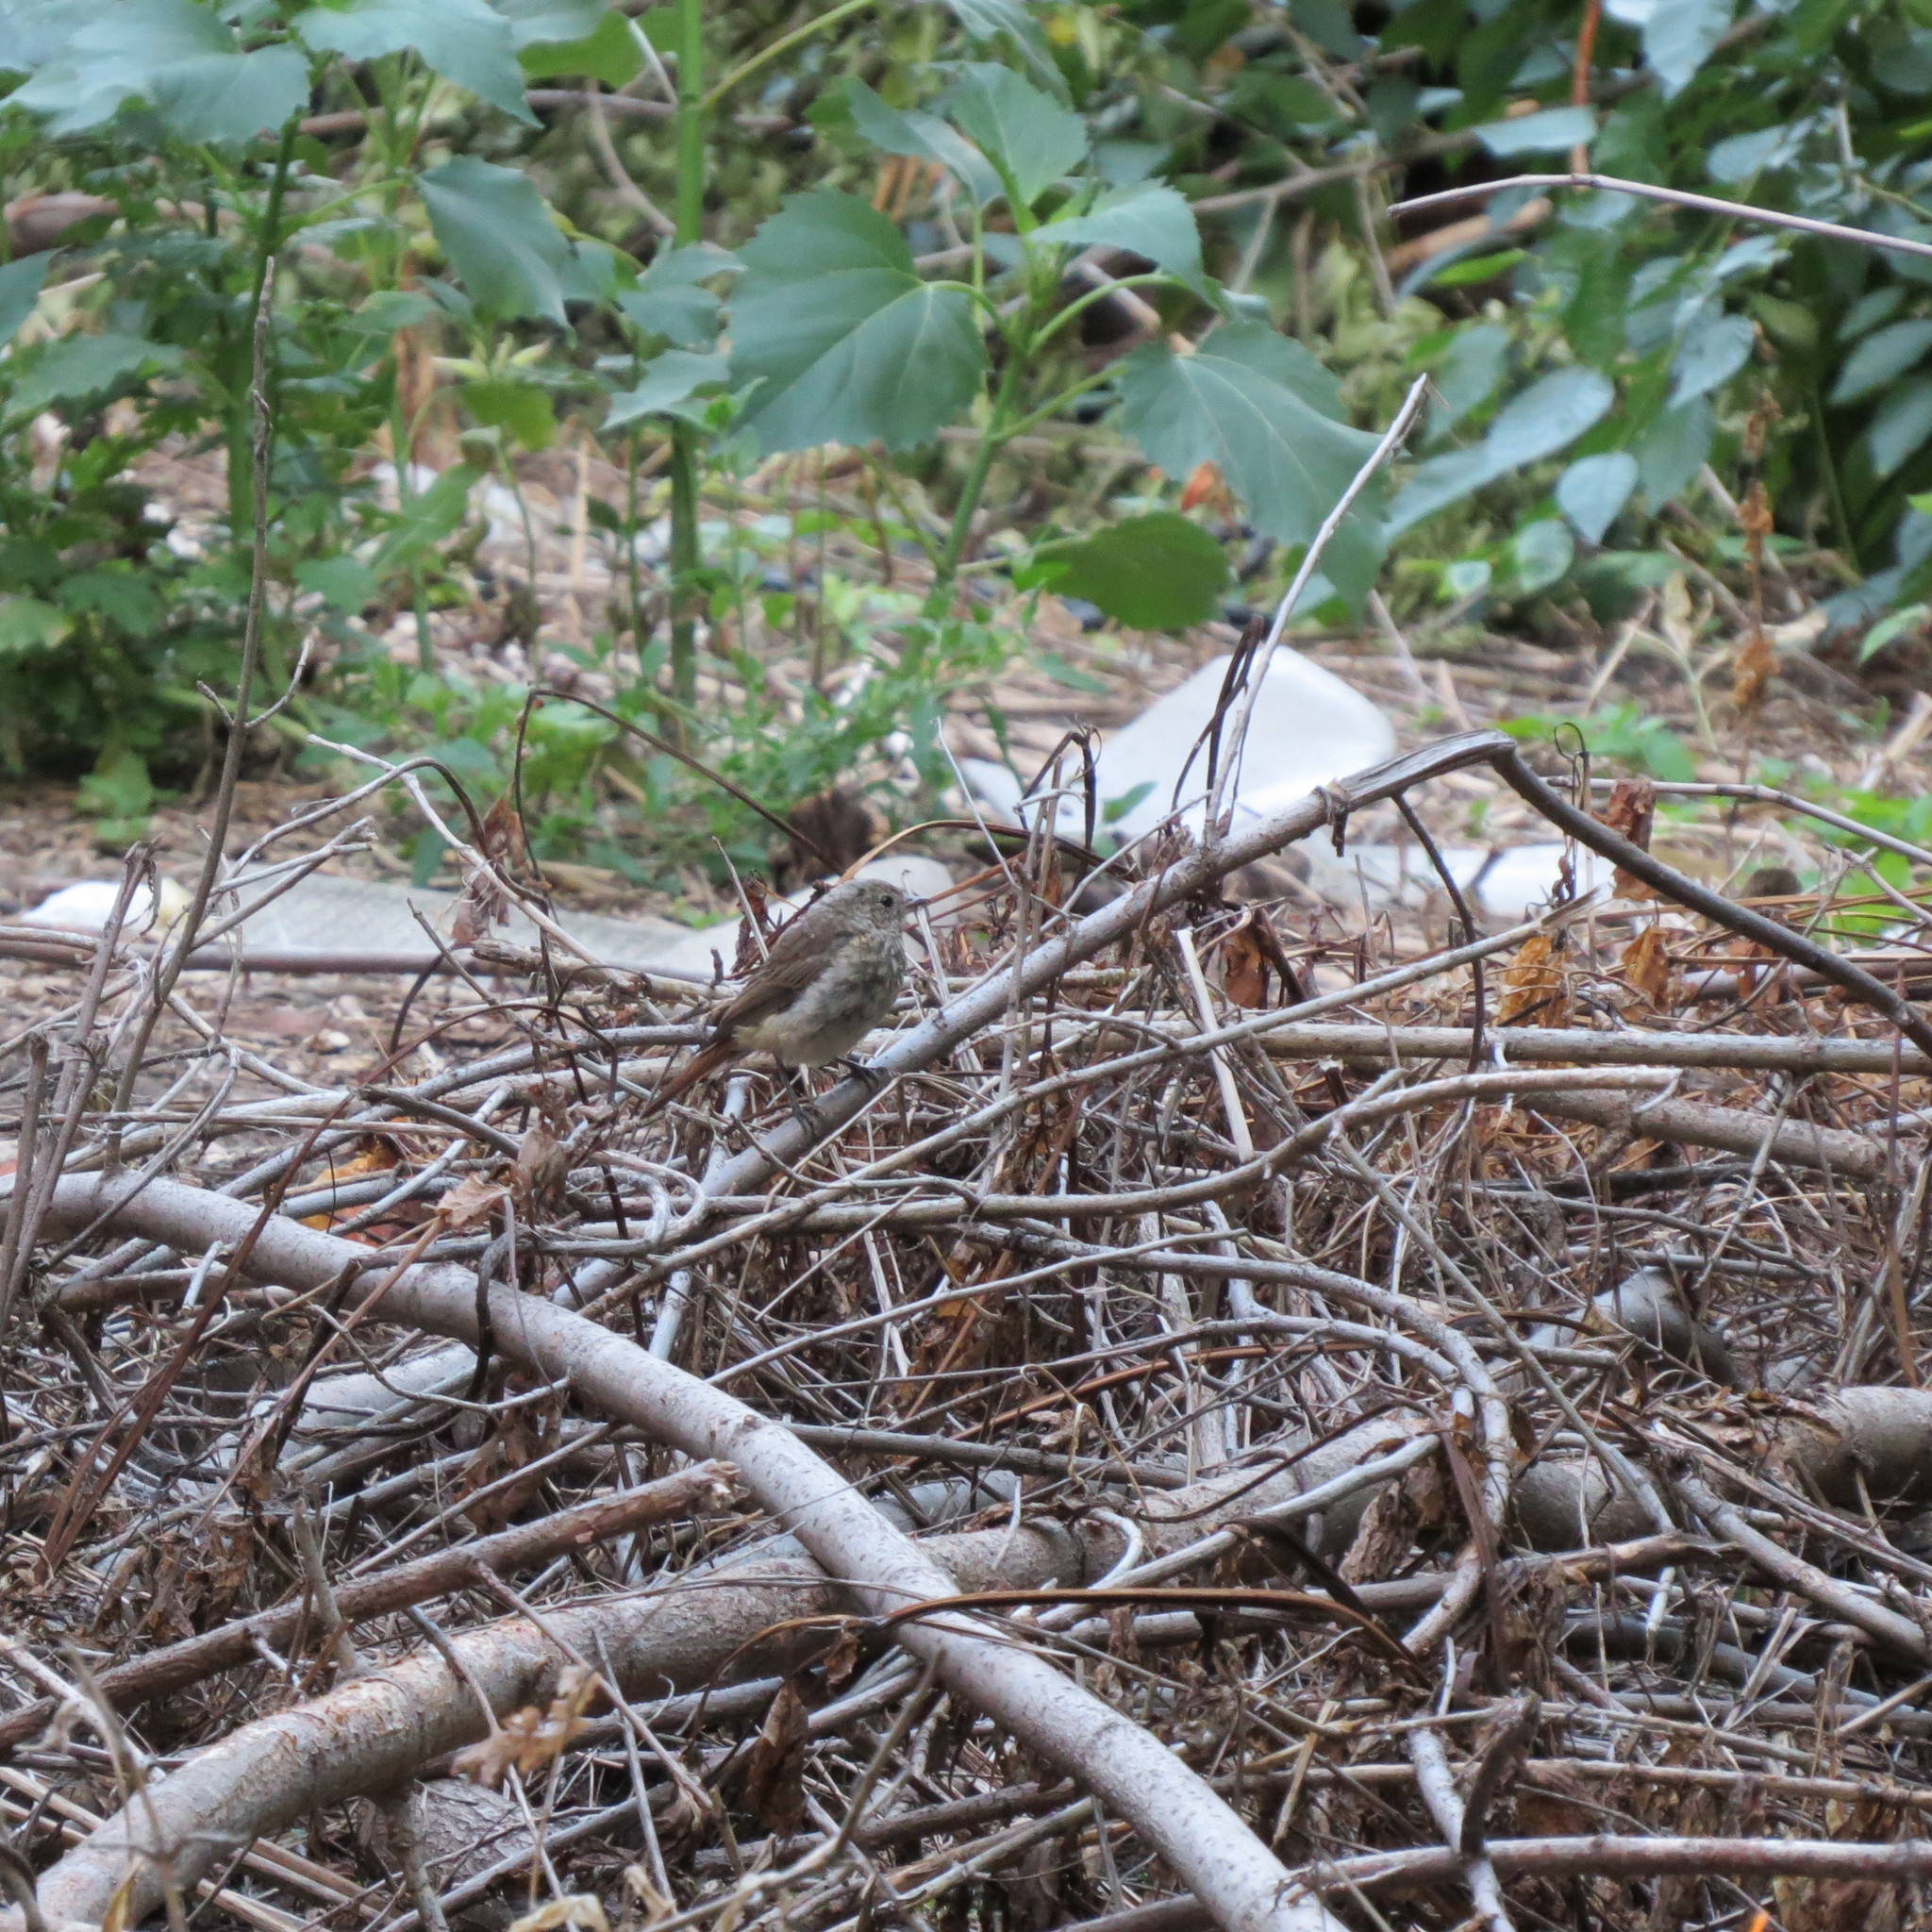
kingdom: Animalia
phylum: Chordata
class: Aves
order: Passeriformes
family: Muscicapidae
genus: Phoenicurus
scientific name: Phoenicurus phoenicurus
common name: Common redstart
